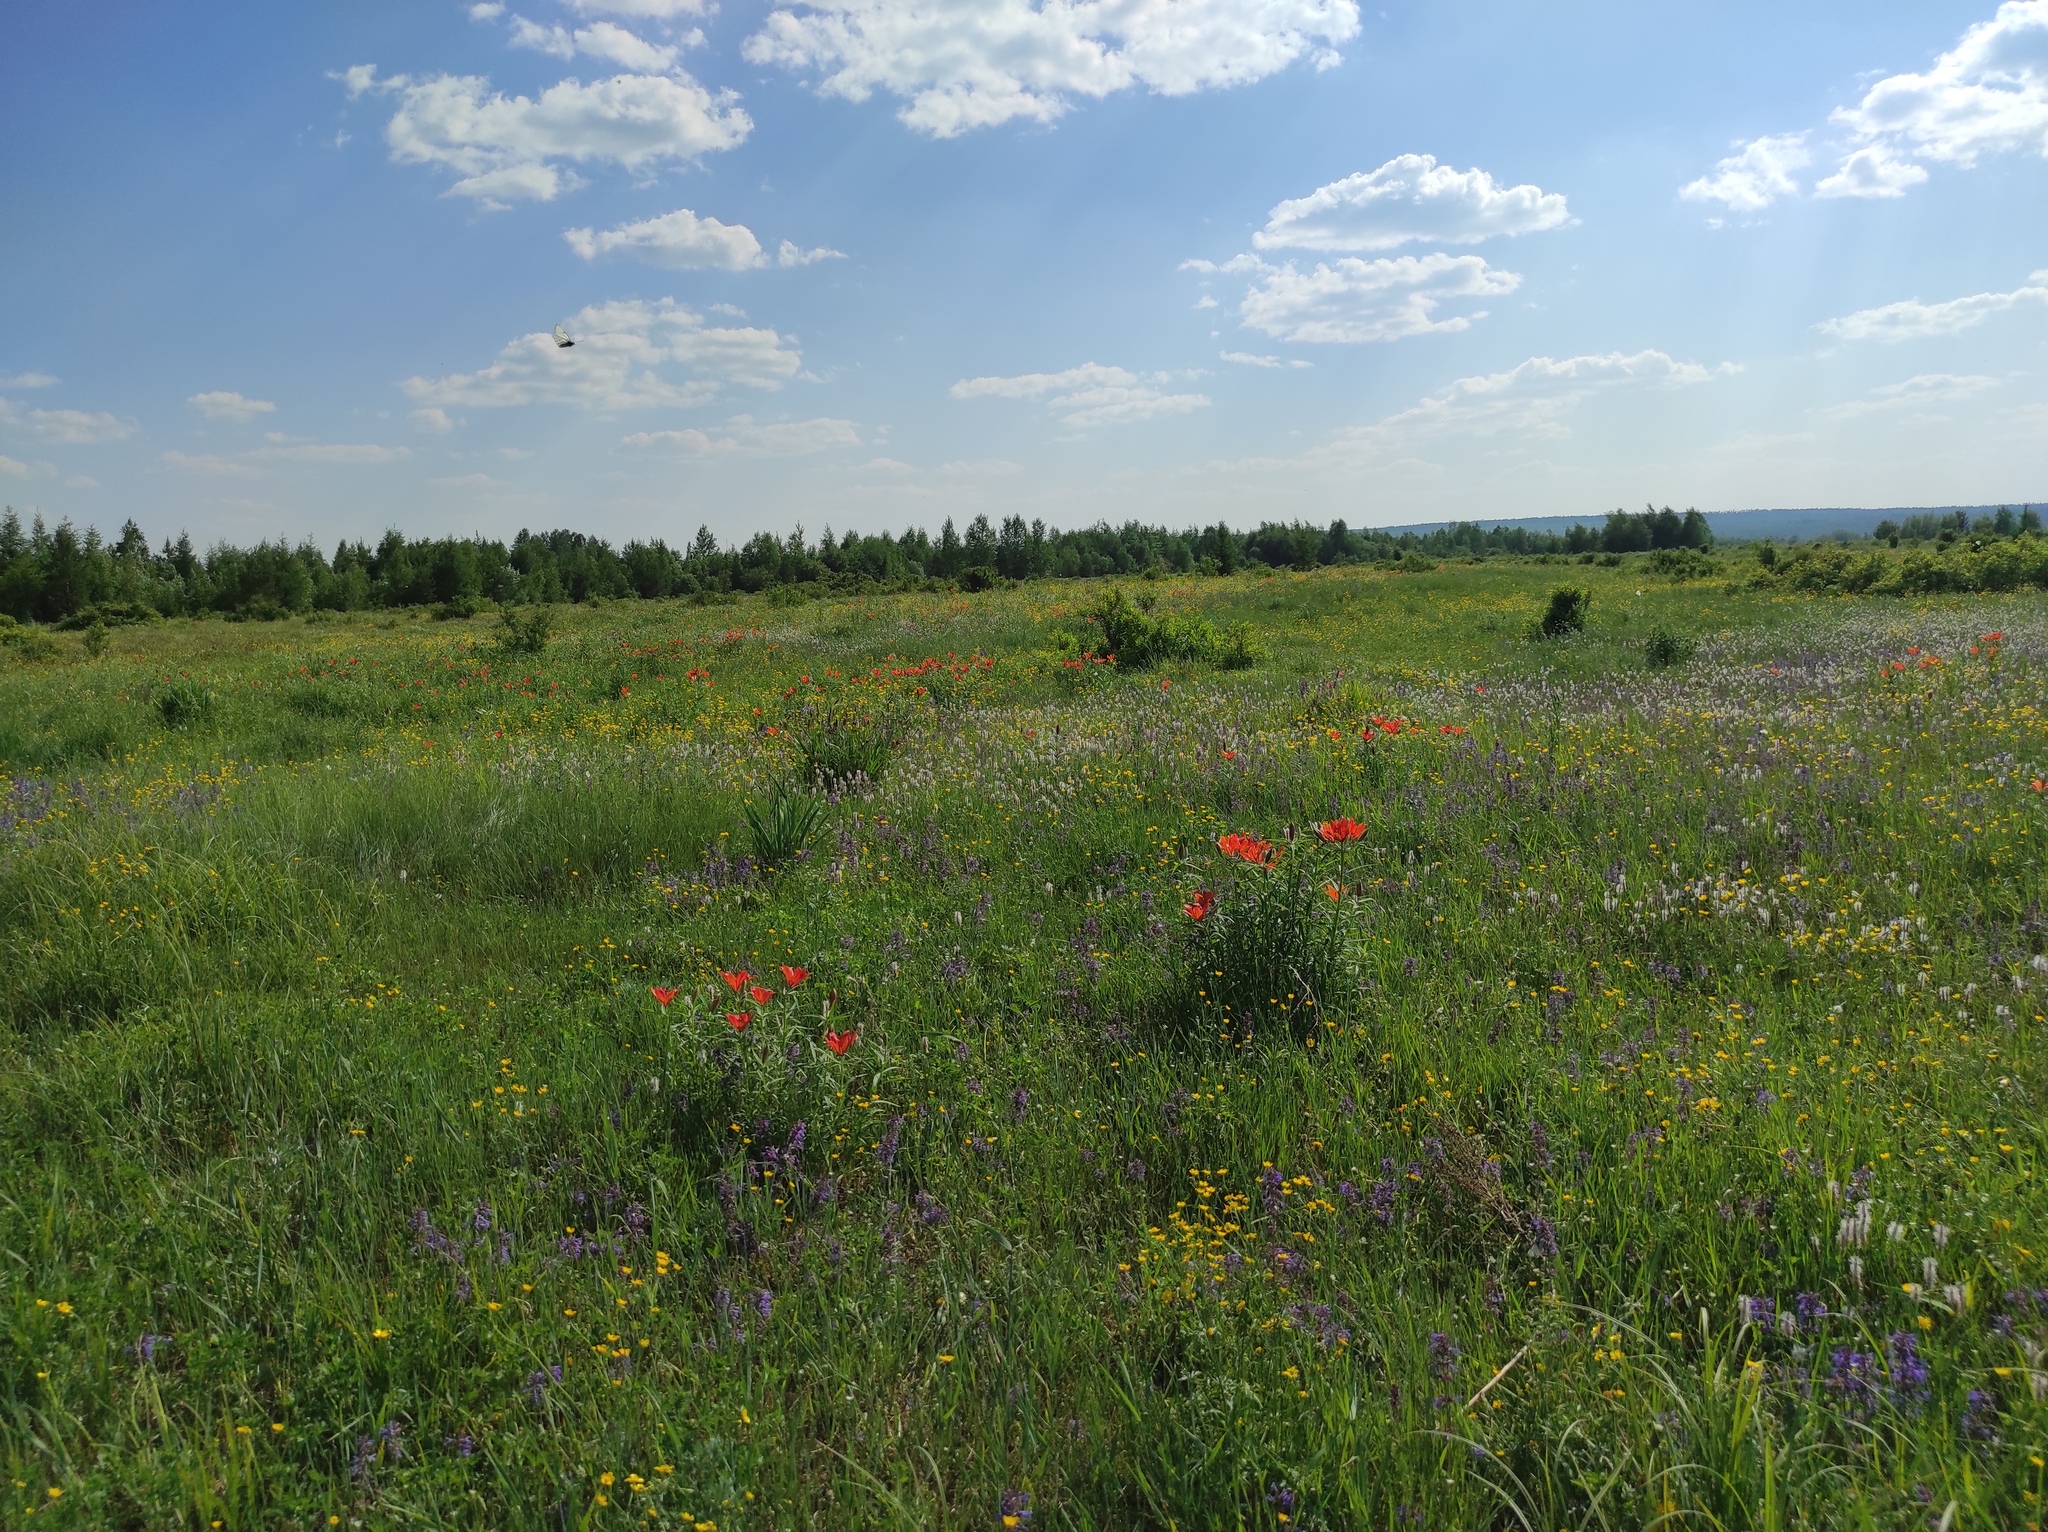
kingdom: Plantae
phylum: Tracheophyta
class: Liliopsida
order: Liliales
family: Liliaceae
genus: Lilium
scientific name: Lilium pensylvanicum
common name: Candlestick lily
